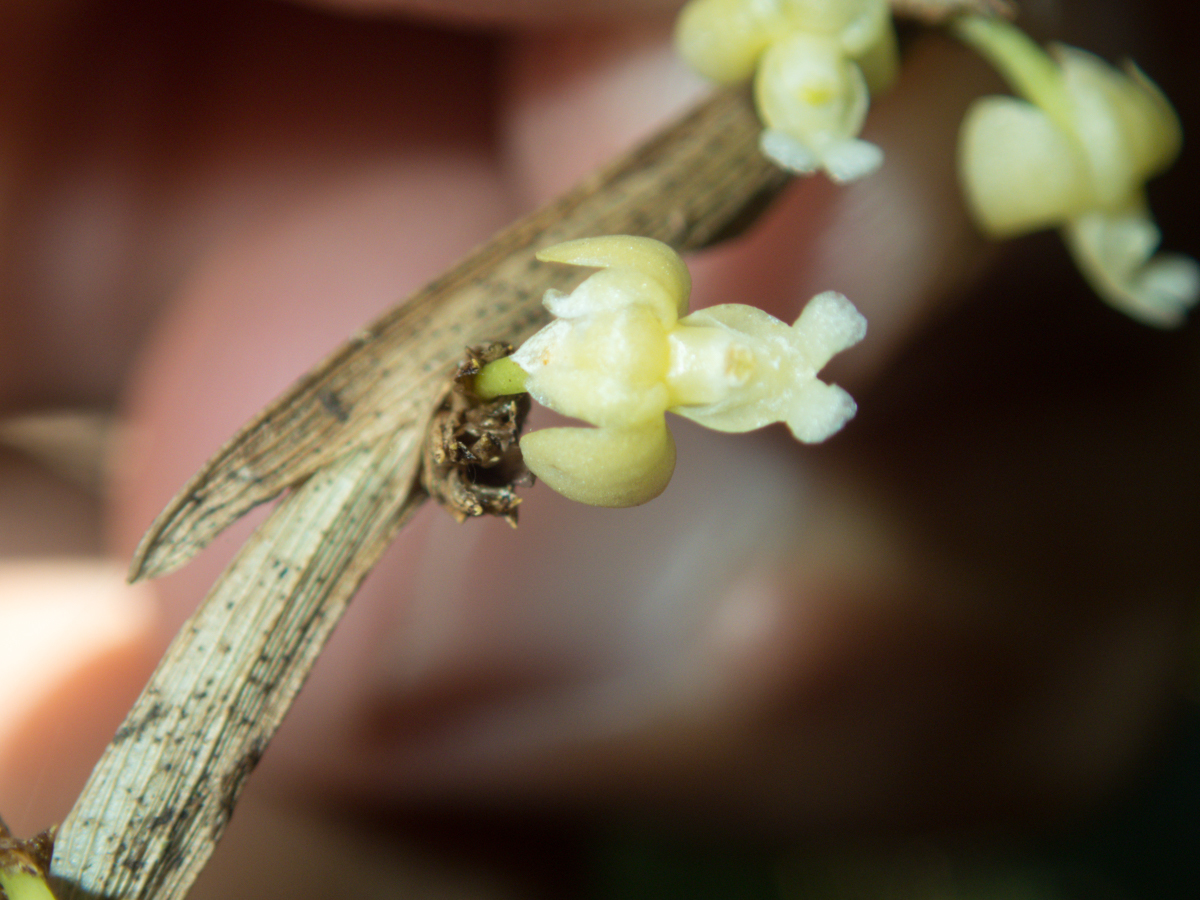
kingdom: Plantae
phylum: Tracheophyta
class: Liliopsida
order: Asparagales
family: Orchidaceae
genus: Dendrobium
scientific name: Dendrobium aloifolium
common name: Aloe-like dendrobium
